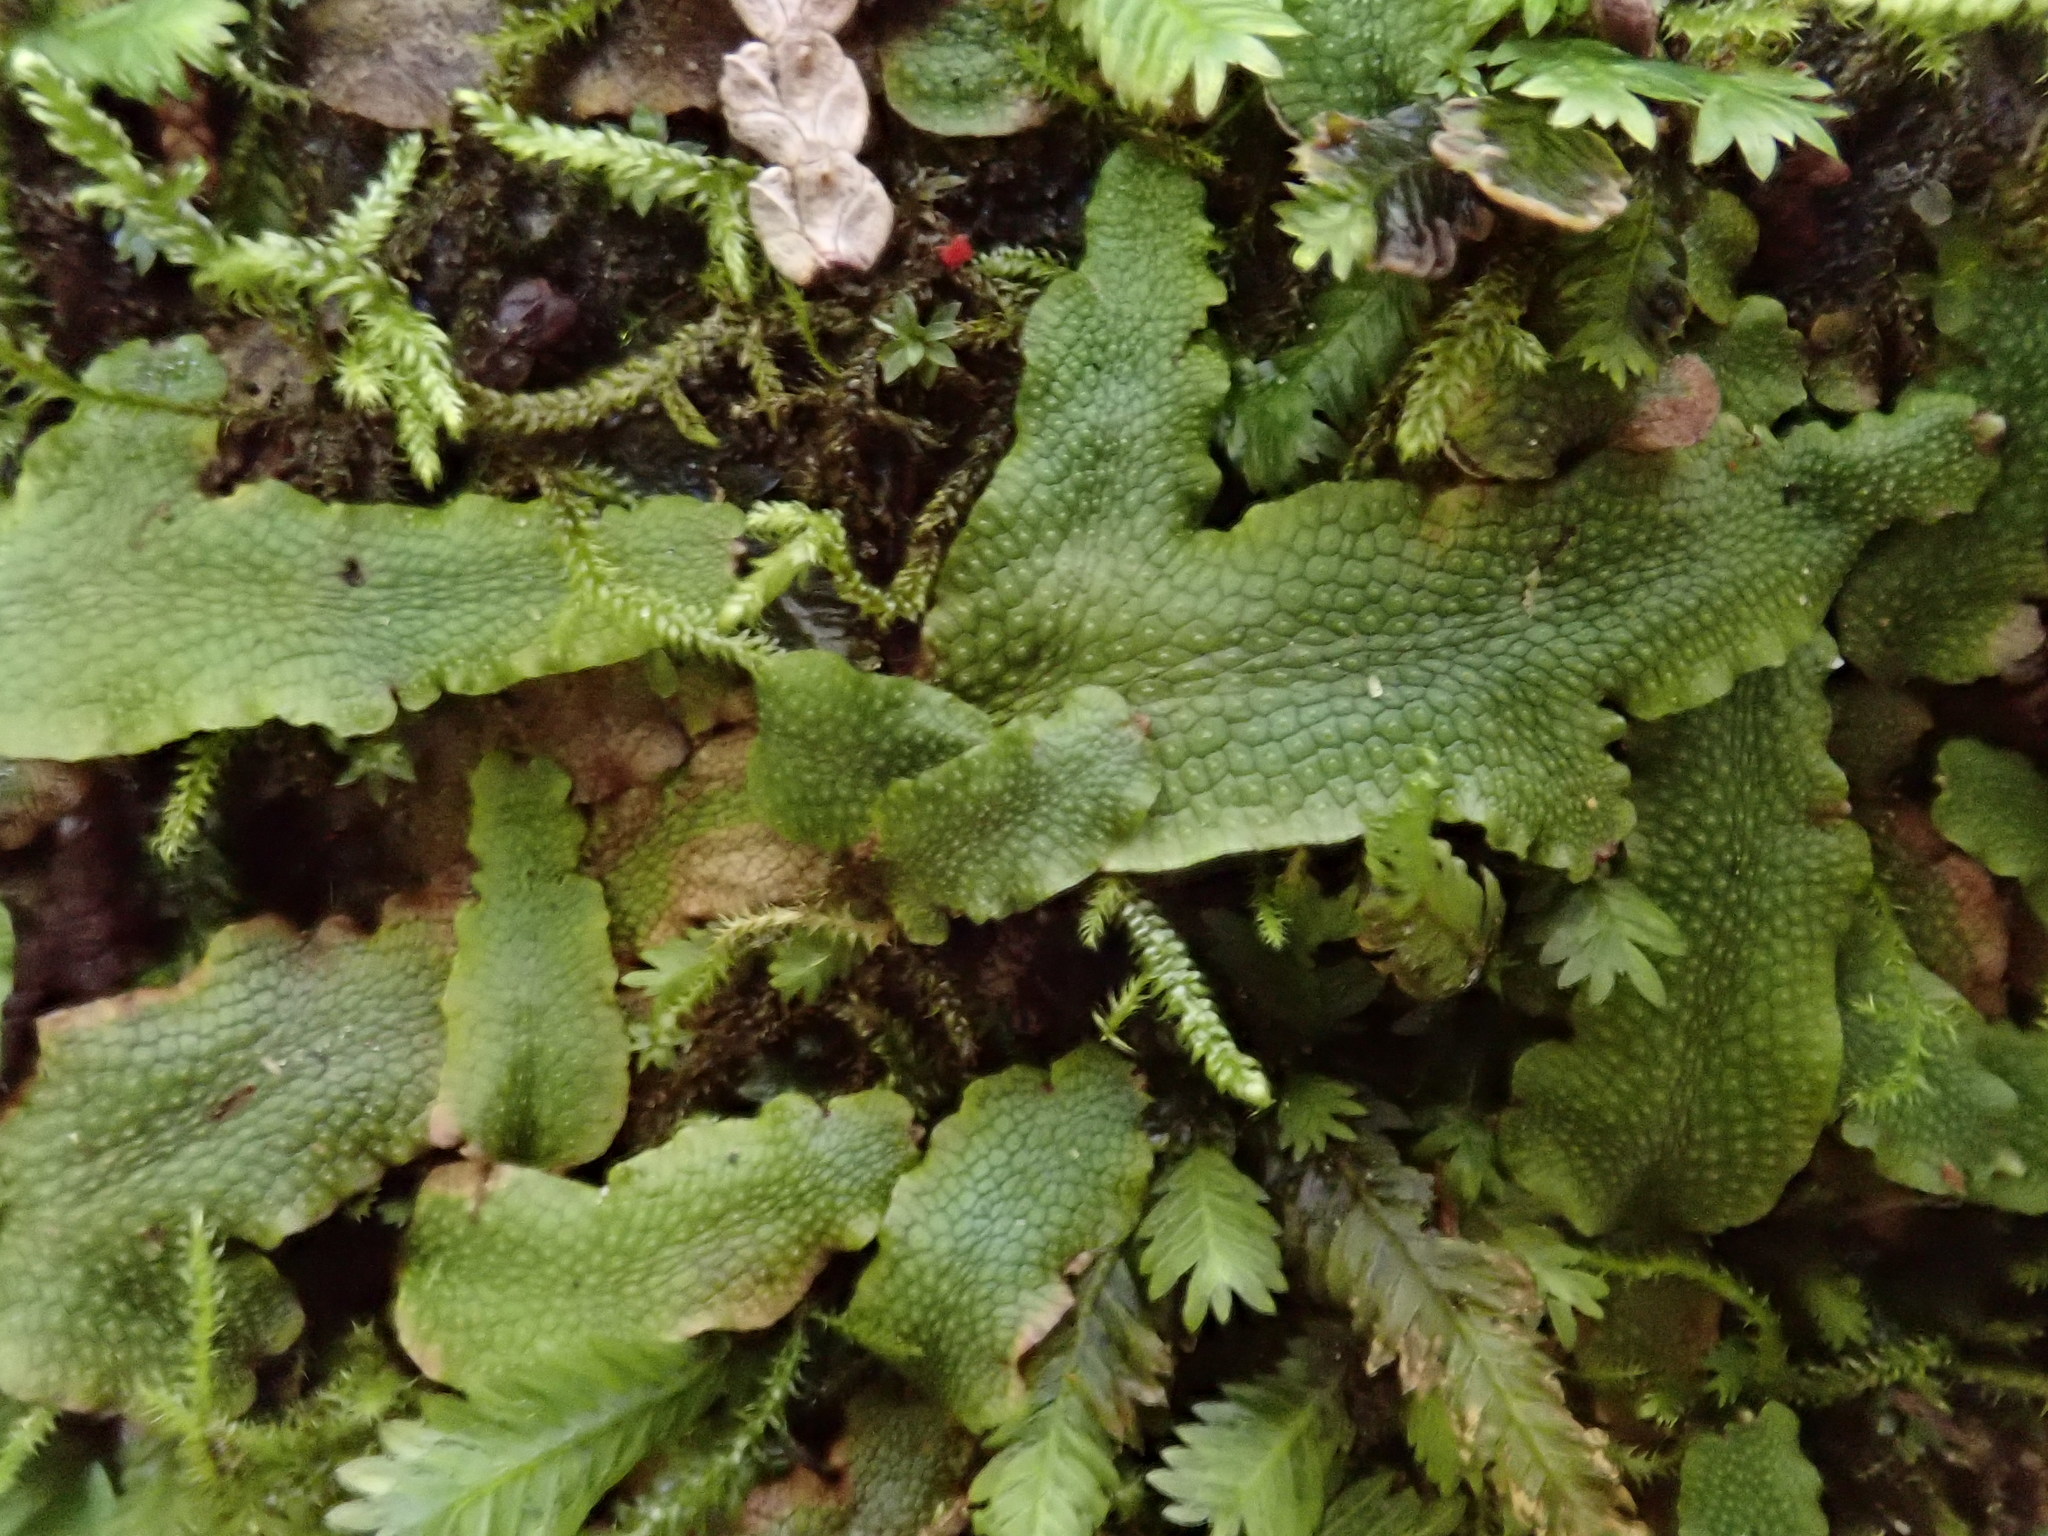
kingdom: Plantae
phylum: Marchantiophyta
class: Marchantiopsida
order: Marchantiales
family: Conocephalaceae
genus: Conocephalum
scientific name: Conocephalum salebrosum
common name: Cat-tongue liverwort
